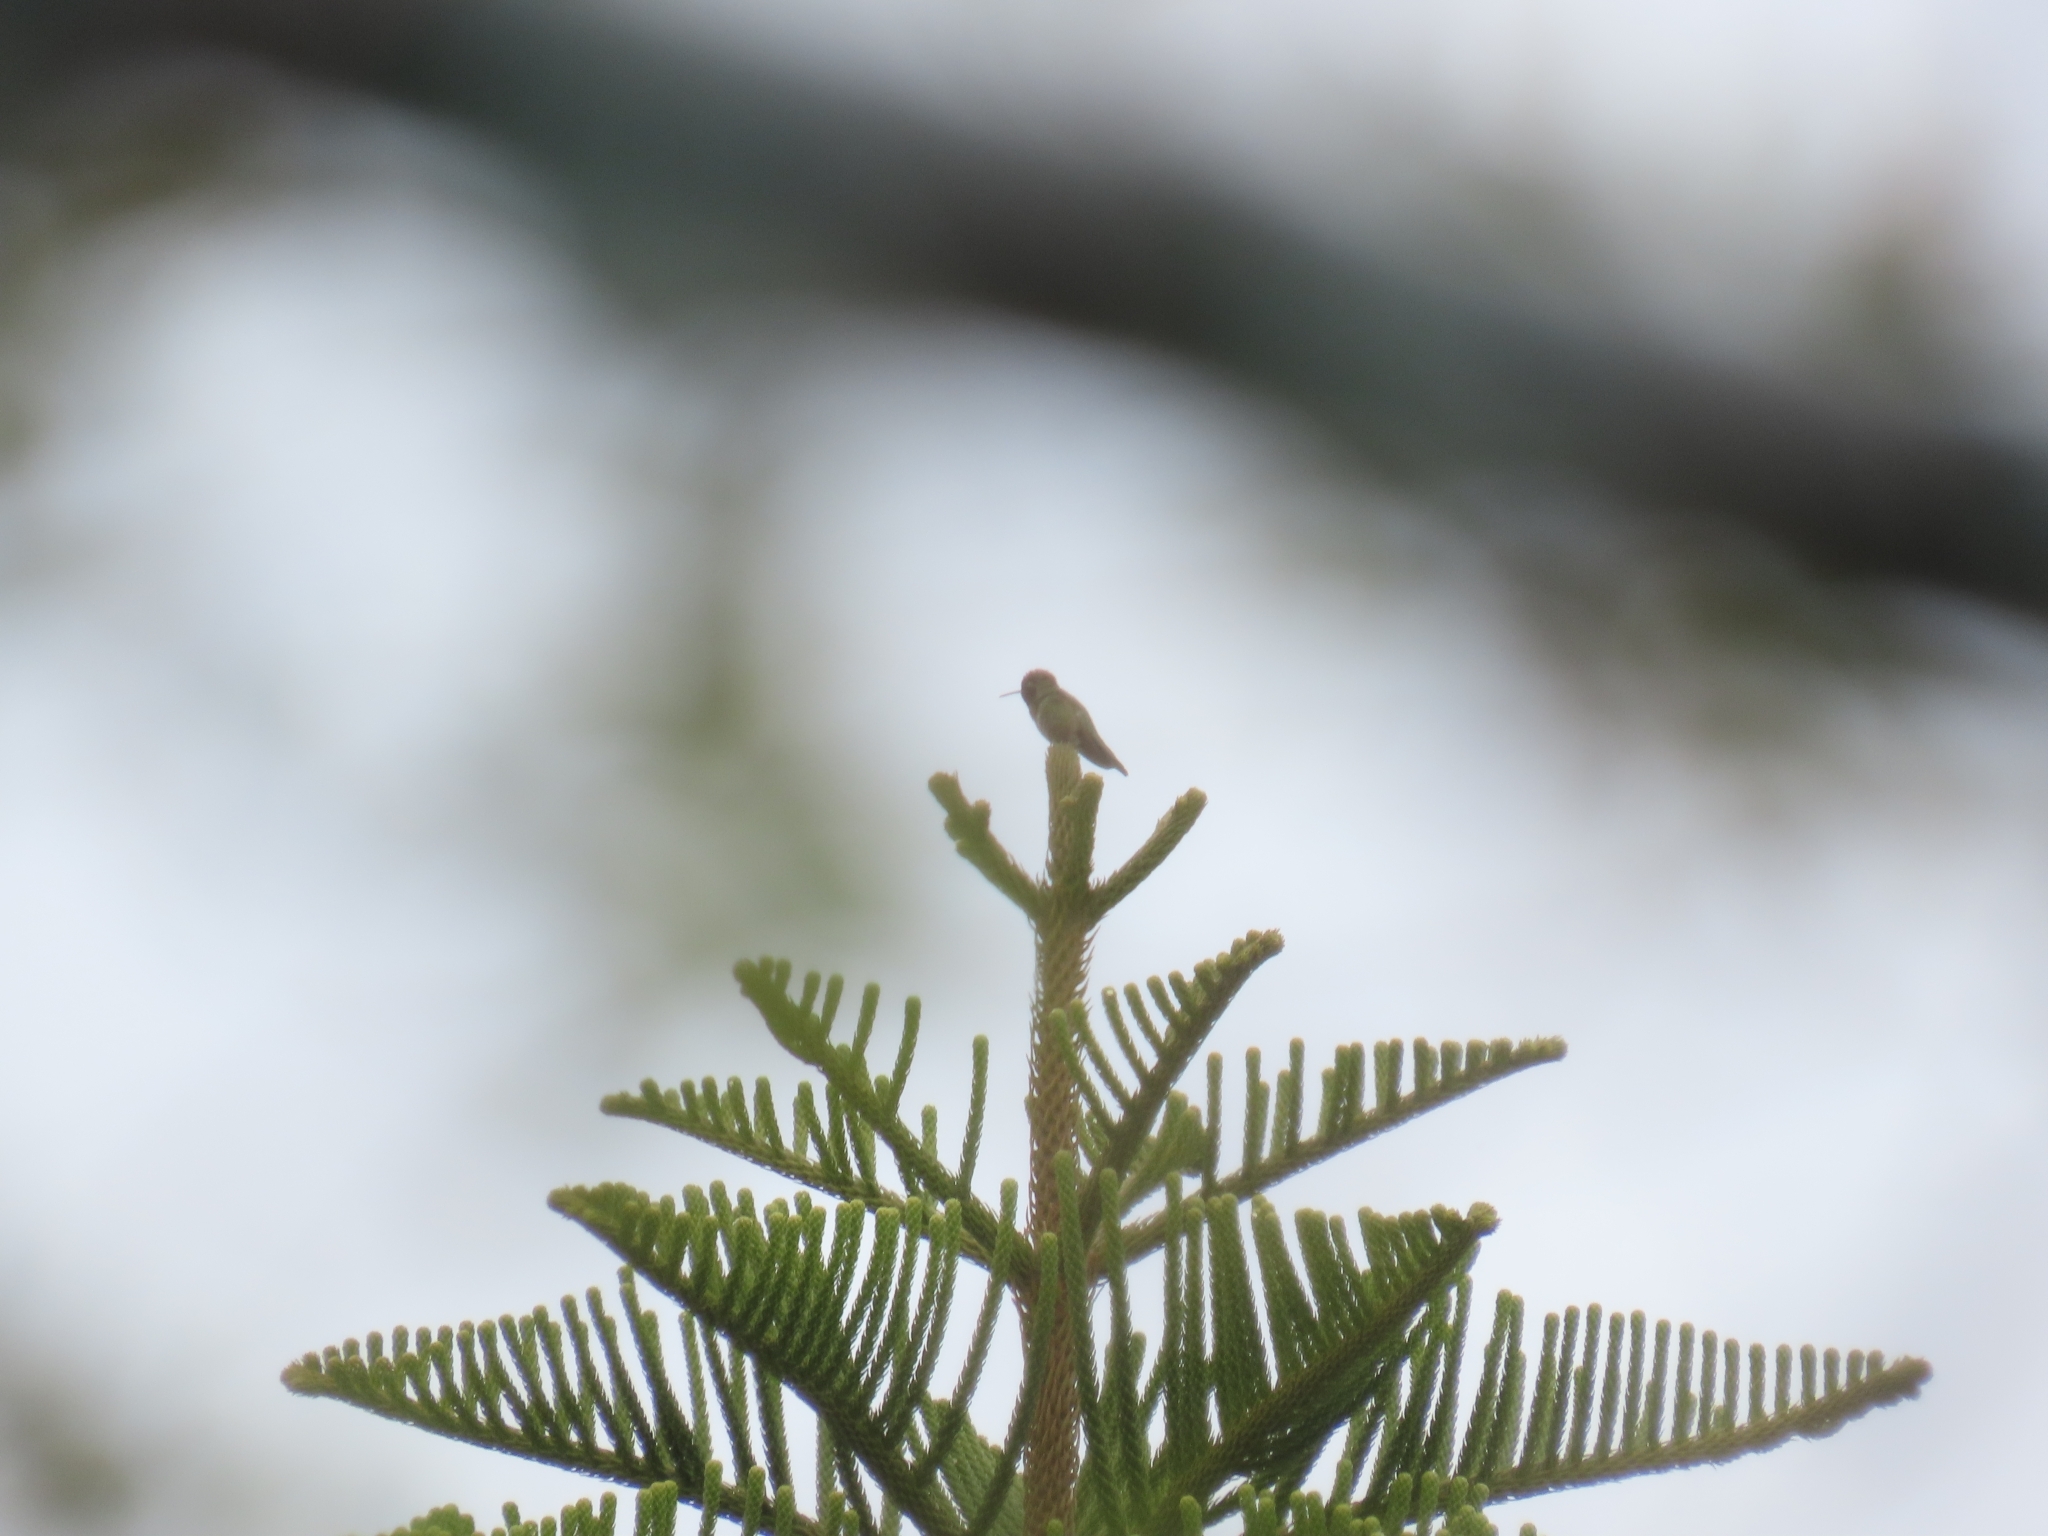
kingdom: Animalia
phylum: Chordata
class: Aves
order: Apodiformes
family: Trochilidae
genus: Calypte
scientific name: Calypte anna
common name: Anna's hummingbird
